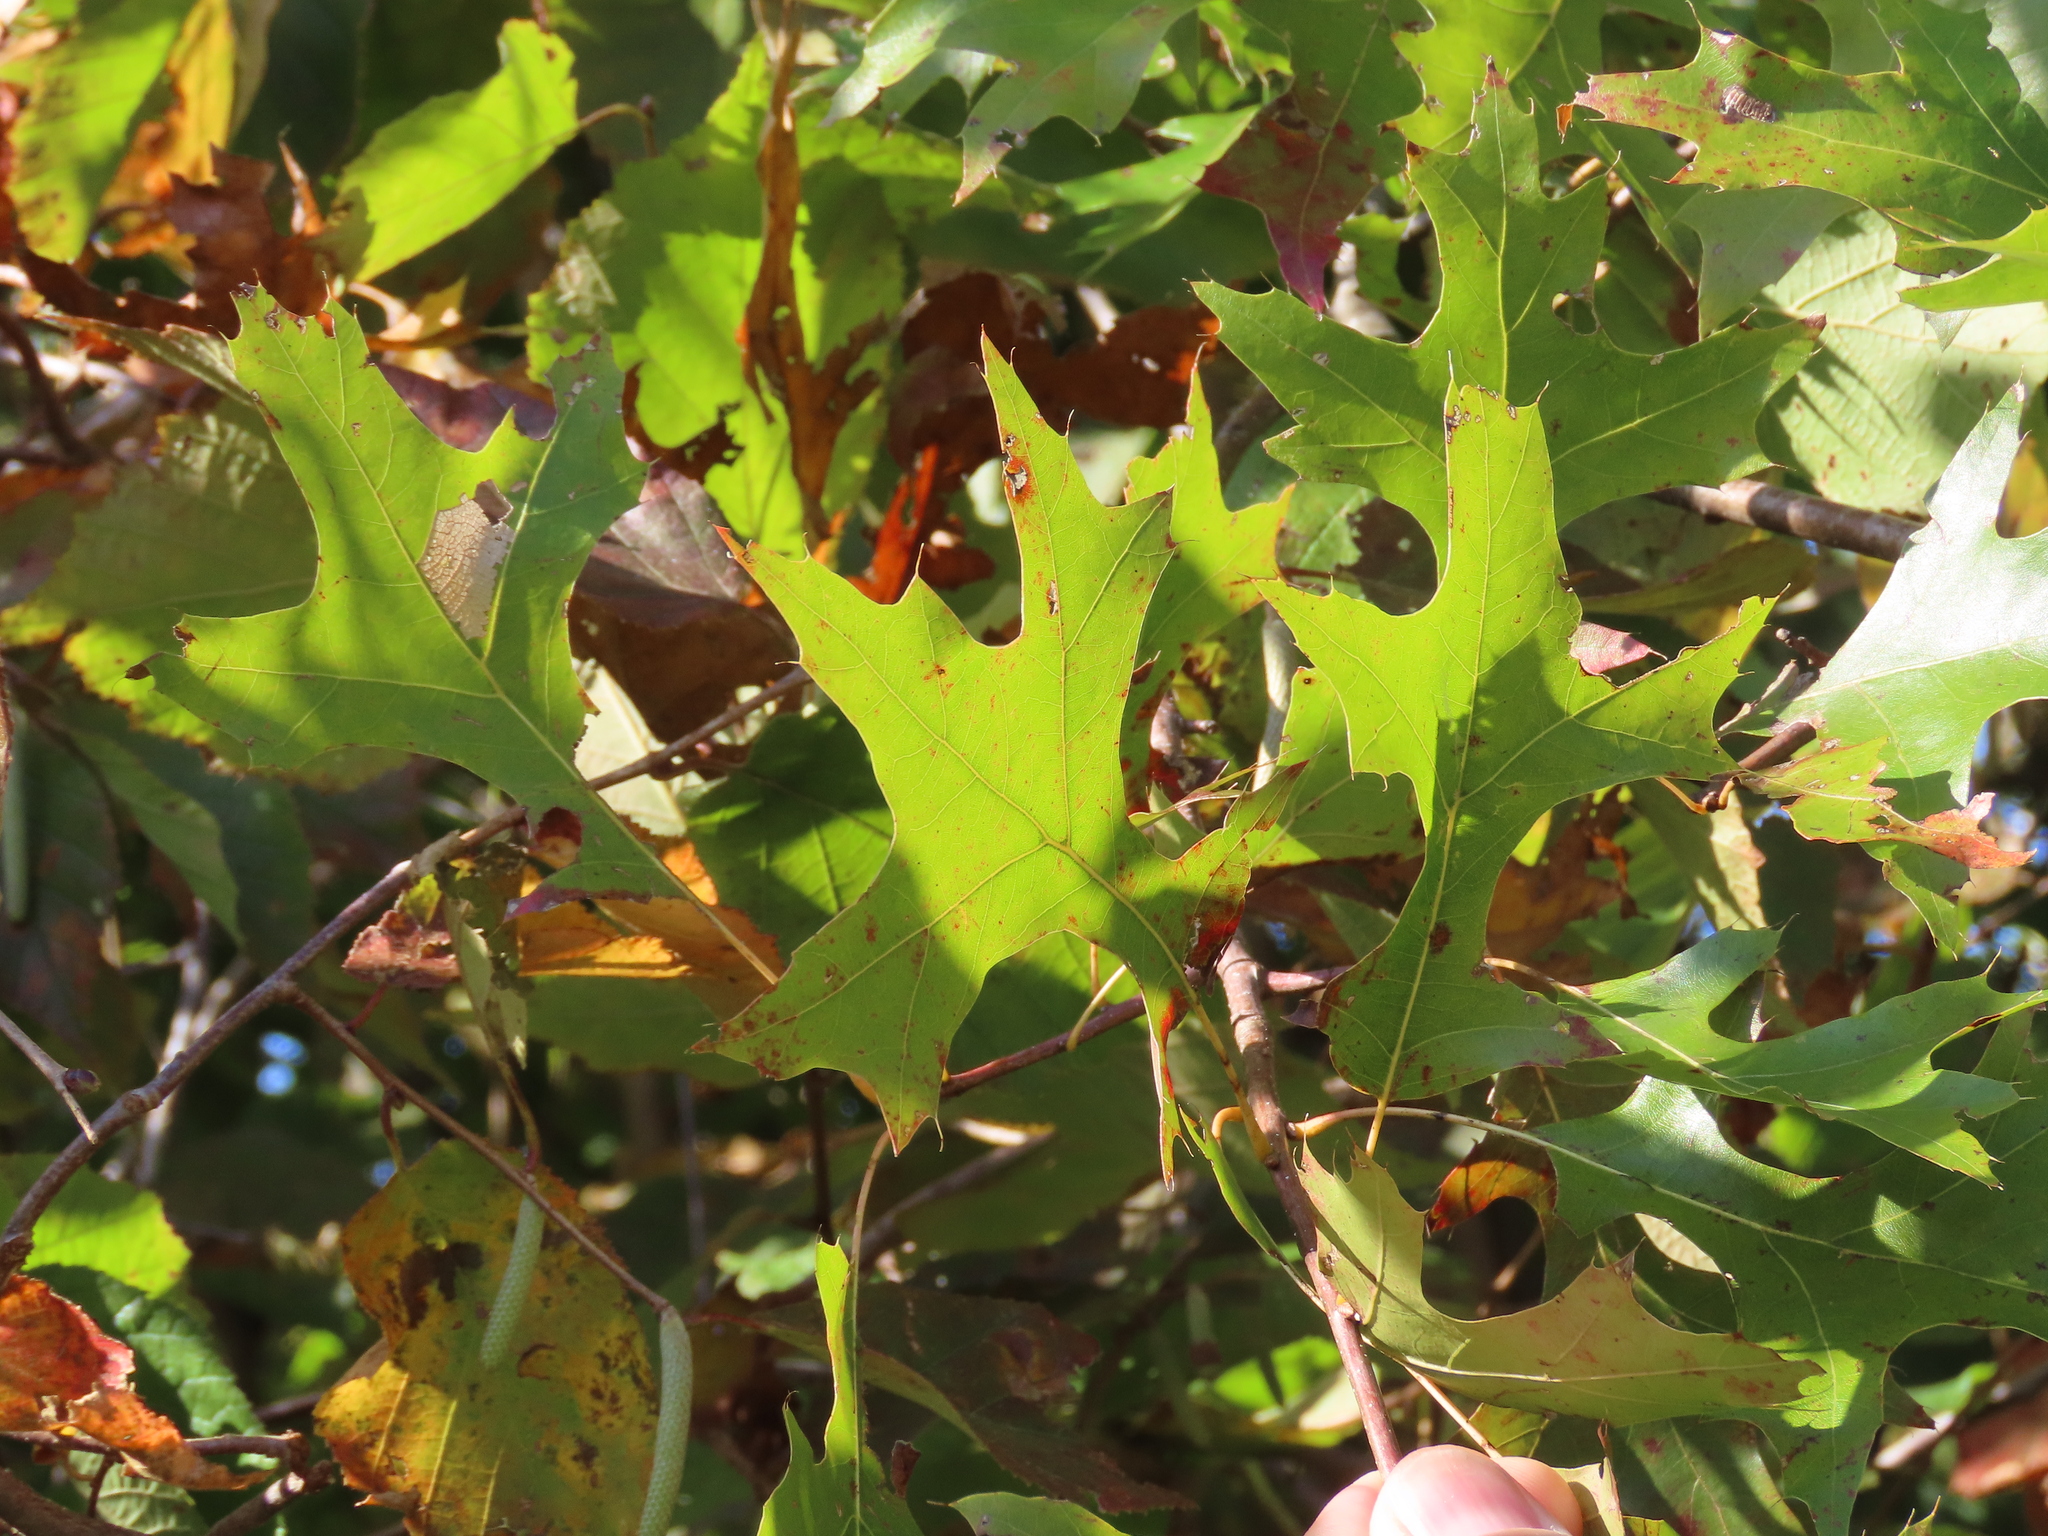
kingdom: Plantae
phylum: Tracheophyta
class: Magnoliopsida
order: Fagales
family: Fagaceae
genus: Quercus
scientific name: Quercus palustris
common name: Pin oak
